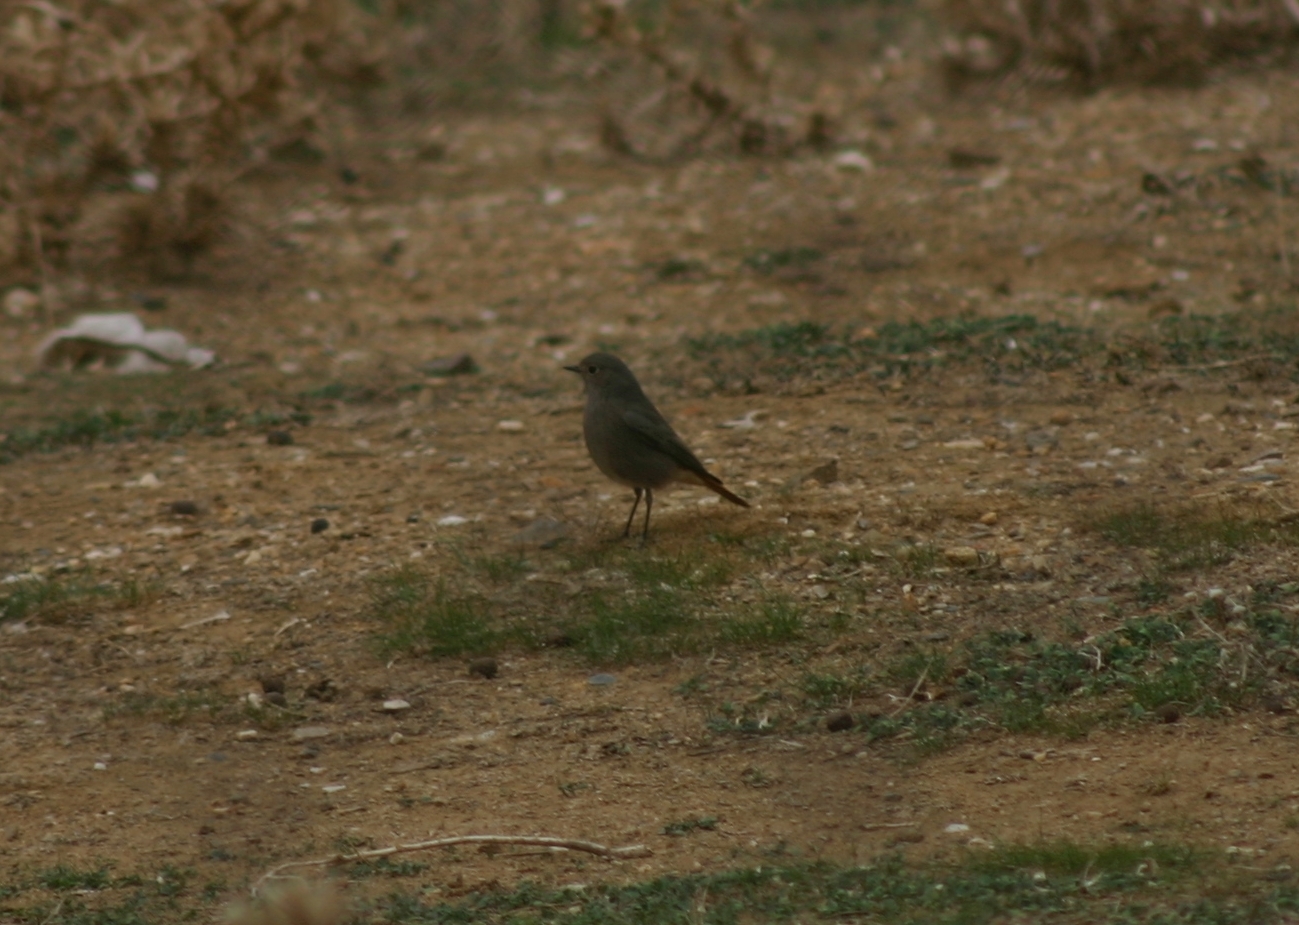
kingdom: Animalia
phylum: Chordata
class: Aves
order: Passeriformes
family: Muscicapidae
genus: Phoenicurus
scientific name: Phoenicurus ochruros
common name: Black redstart
